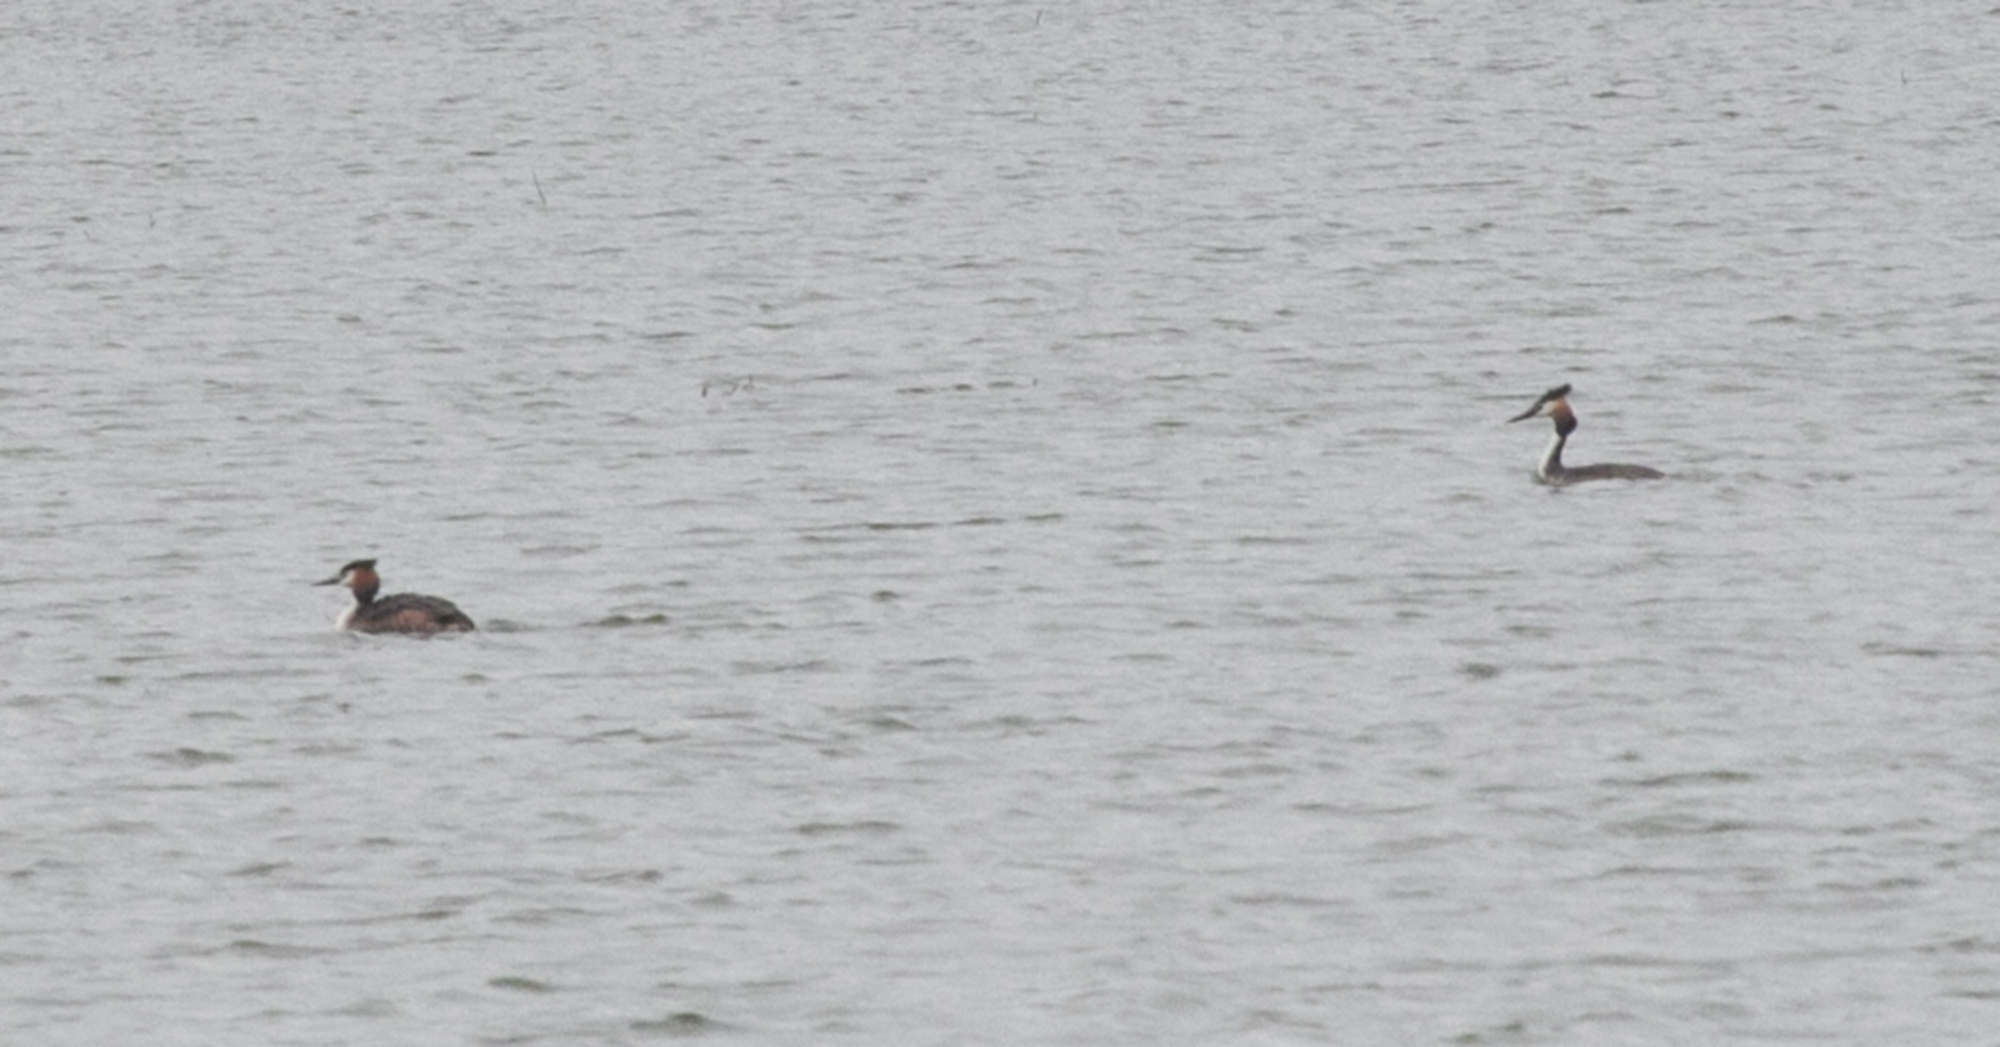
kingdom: Animalia
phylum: Chordata
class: Aves
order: Podicipediformes
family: Podicipedidae
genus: Podiceps
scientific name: Podiceps cristatus
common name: Great crested grebe
